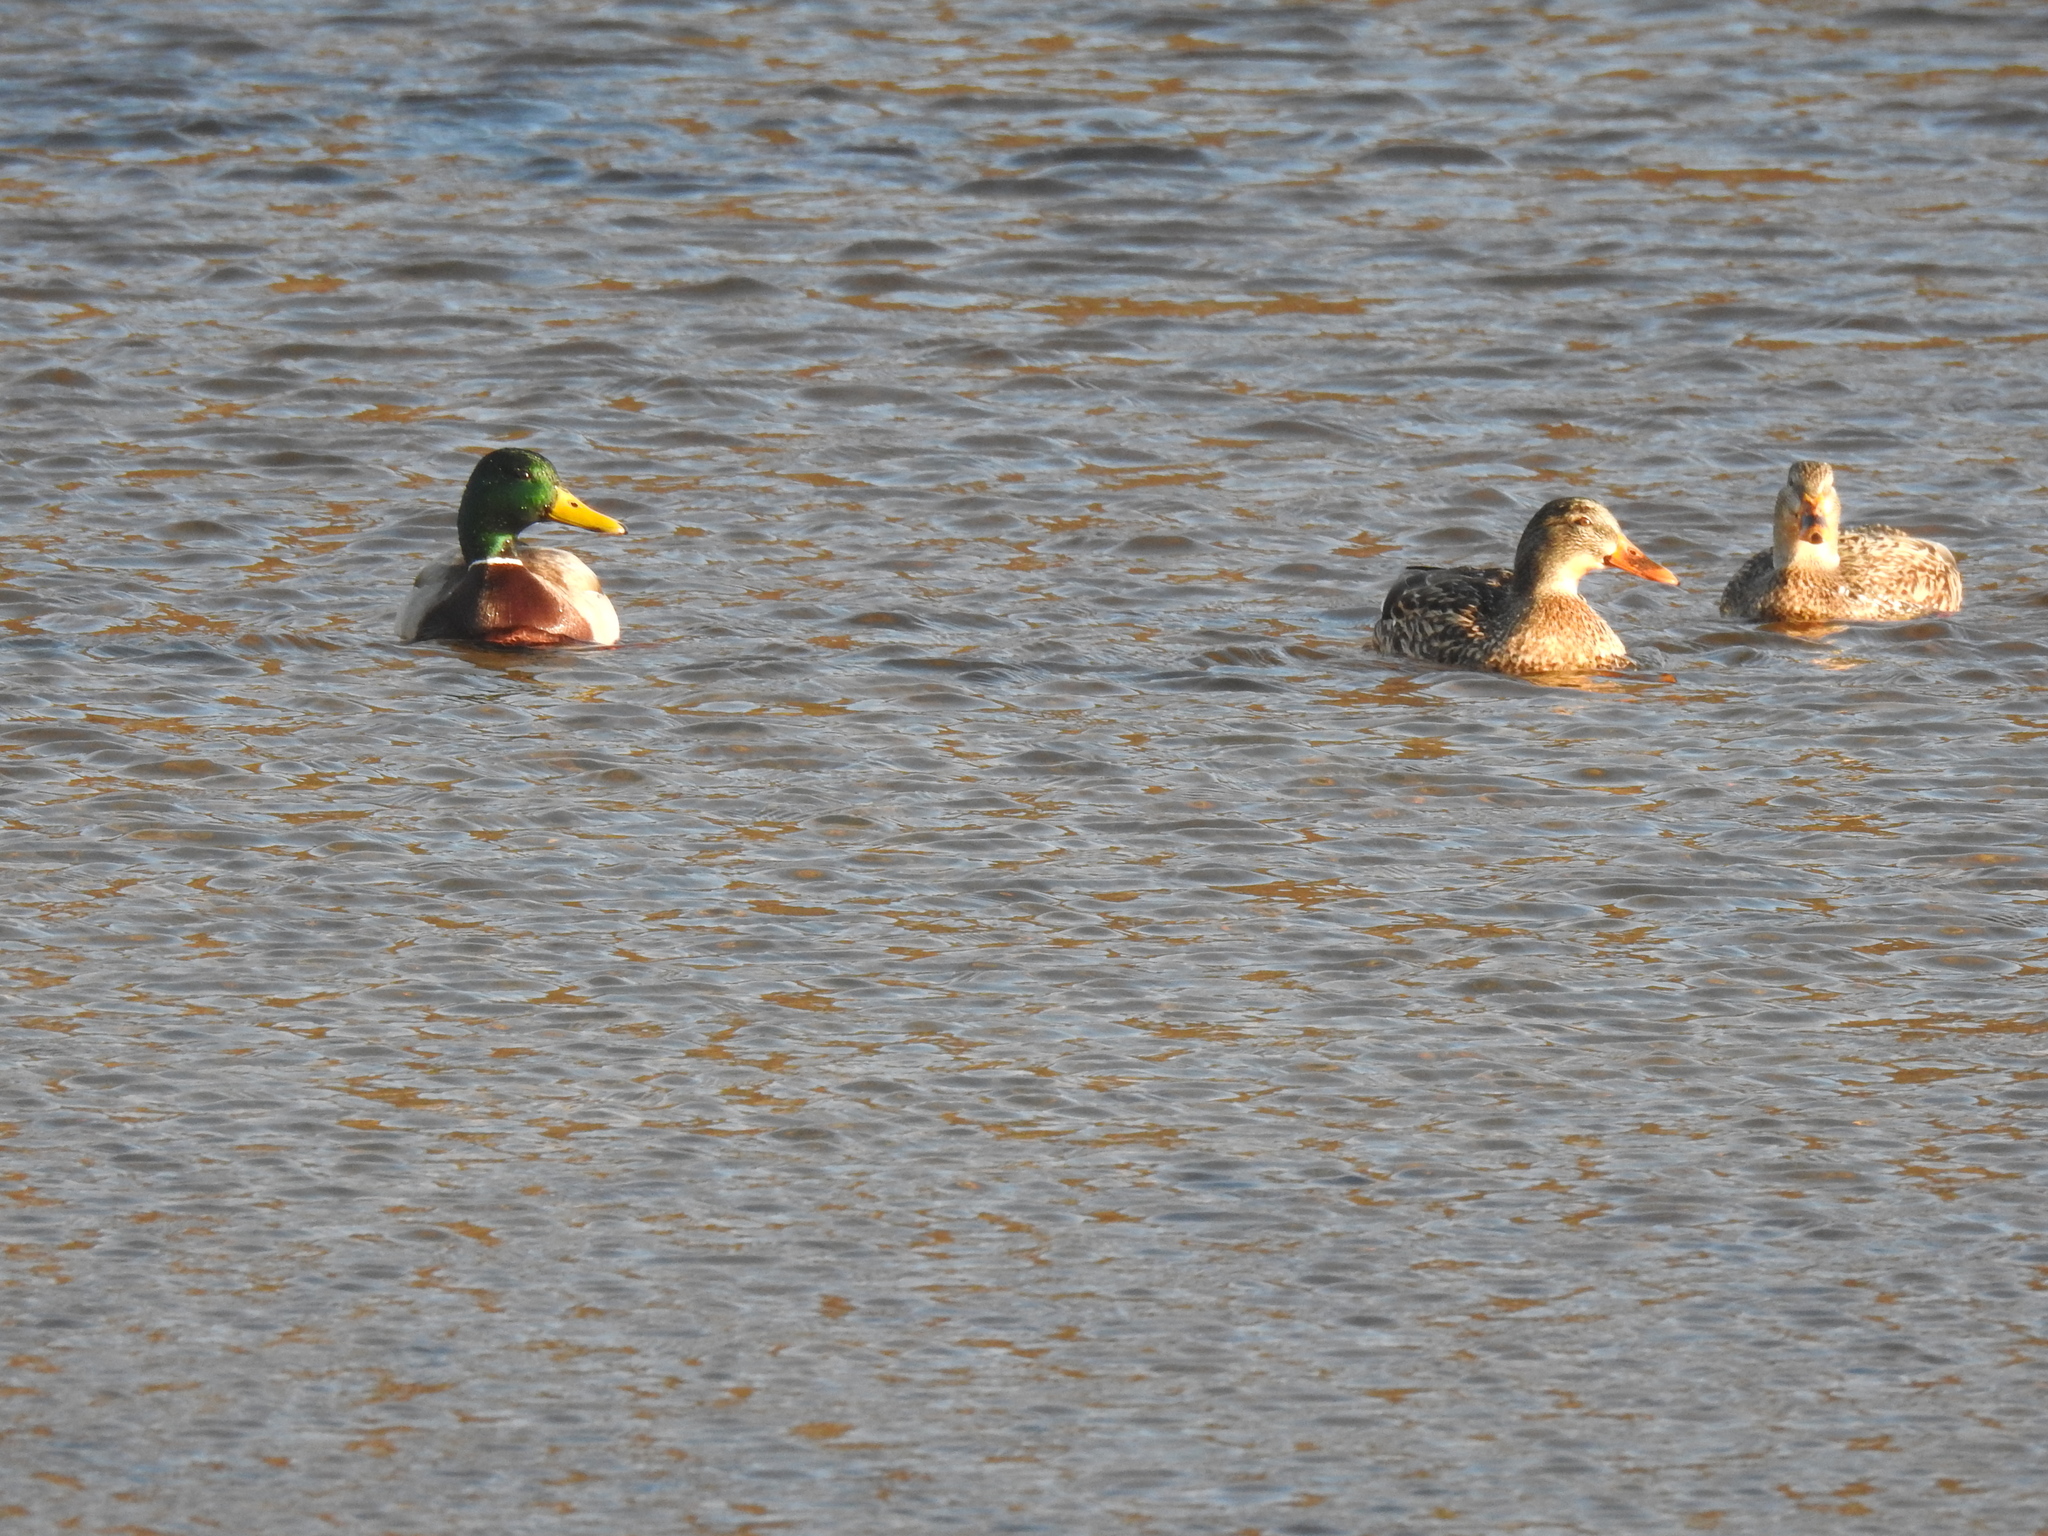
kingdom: Animalia
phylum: Chordata
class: Aves
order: Anseriformes
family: Anatidae
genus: Anas
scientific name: Anas platyrhynchos
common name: Mallard
